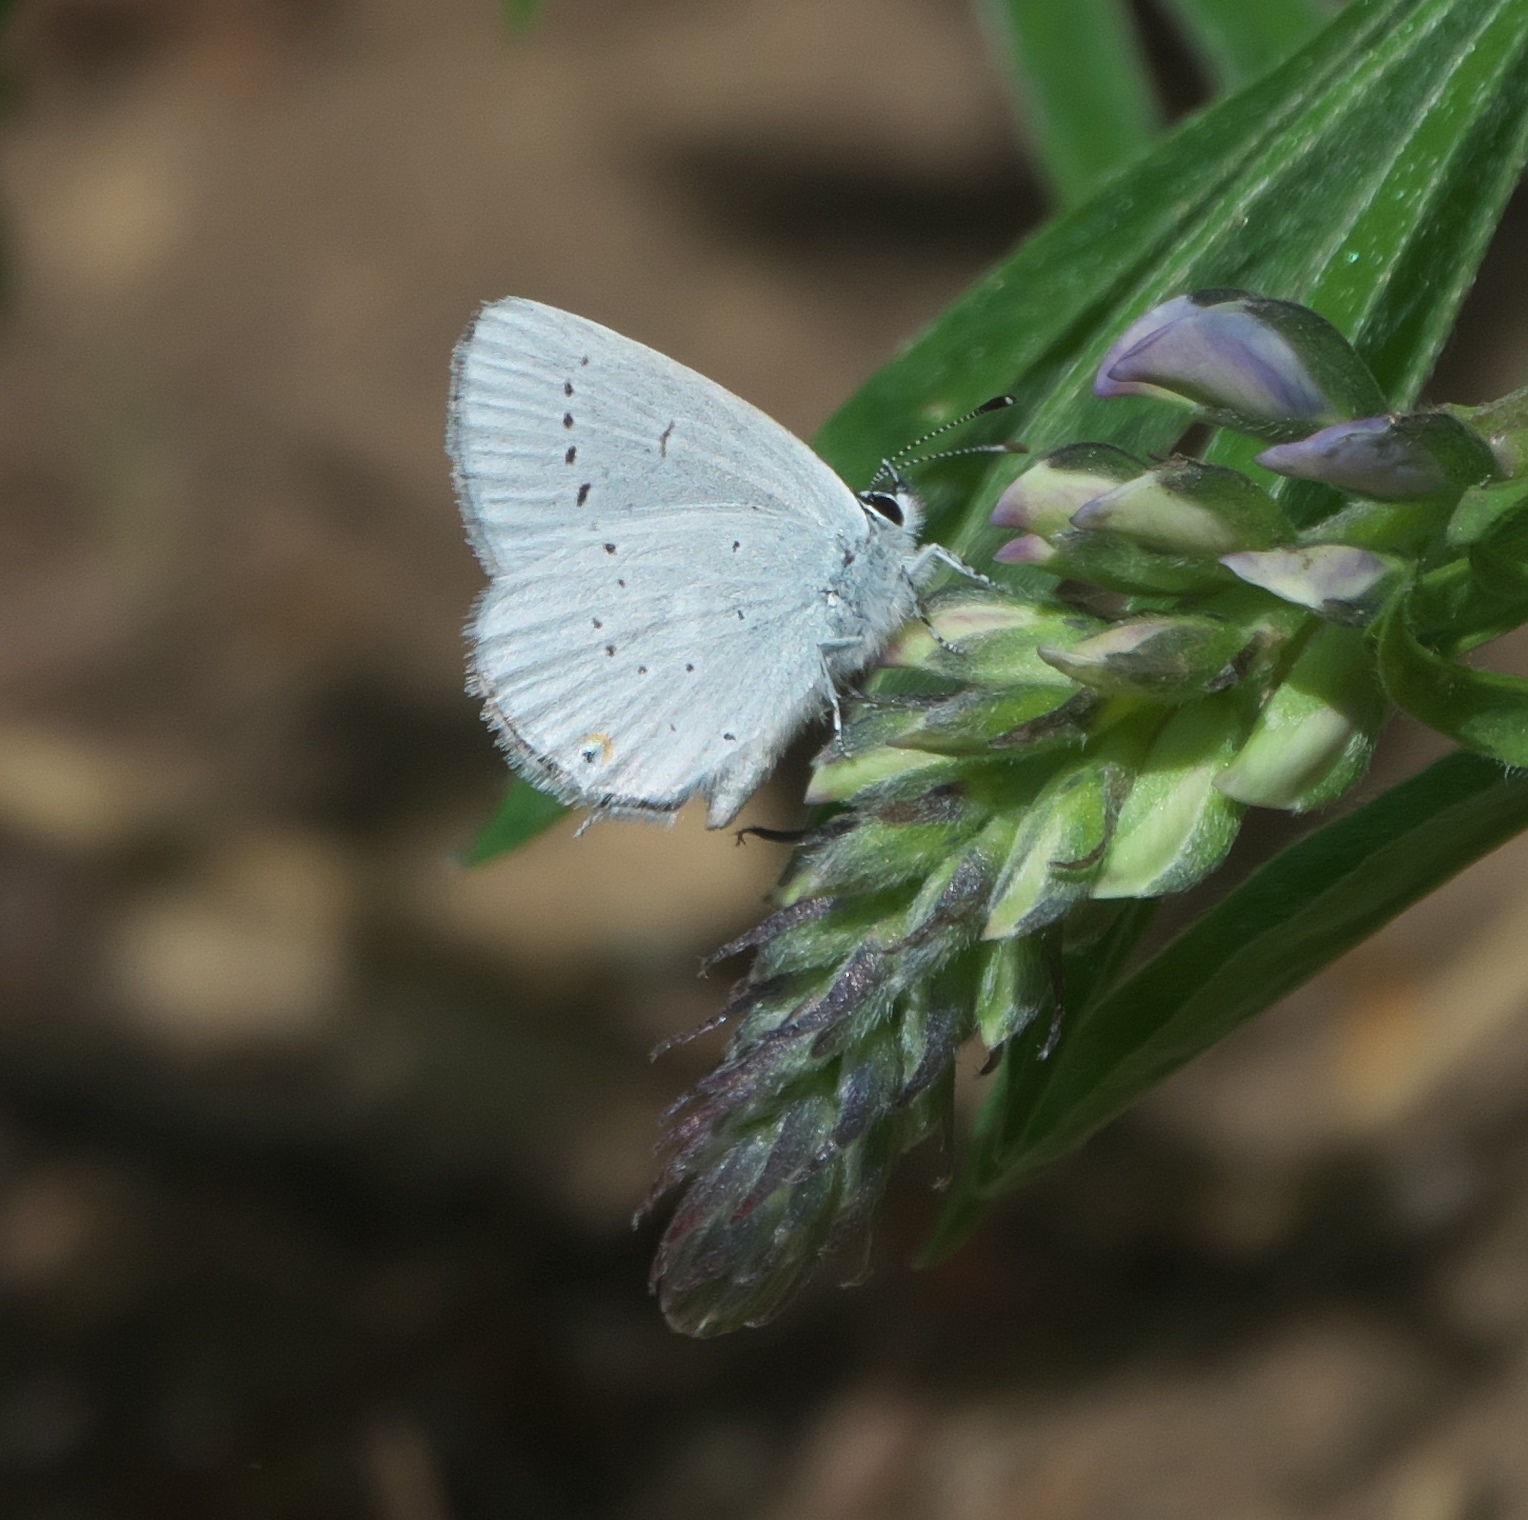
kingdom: Animalia
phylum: Arthropoda
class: Insecta
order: Lepidoptera
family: Lycaenidae
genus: Elkalyce
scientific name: Elkalyce amyntula
